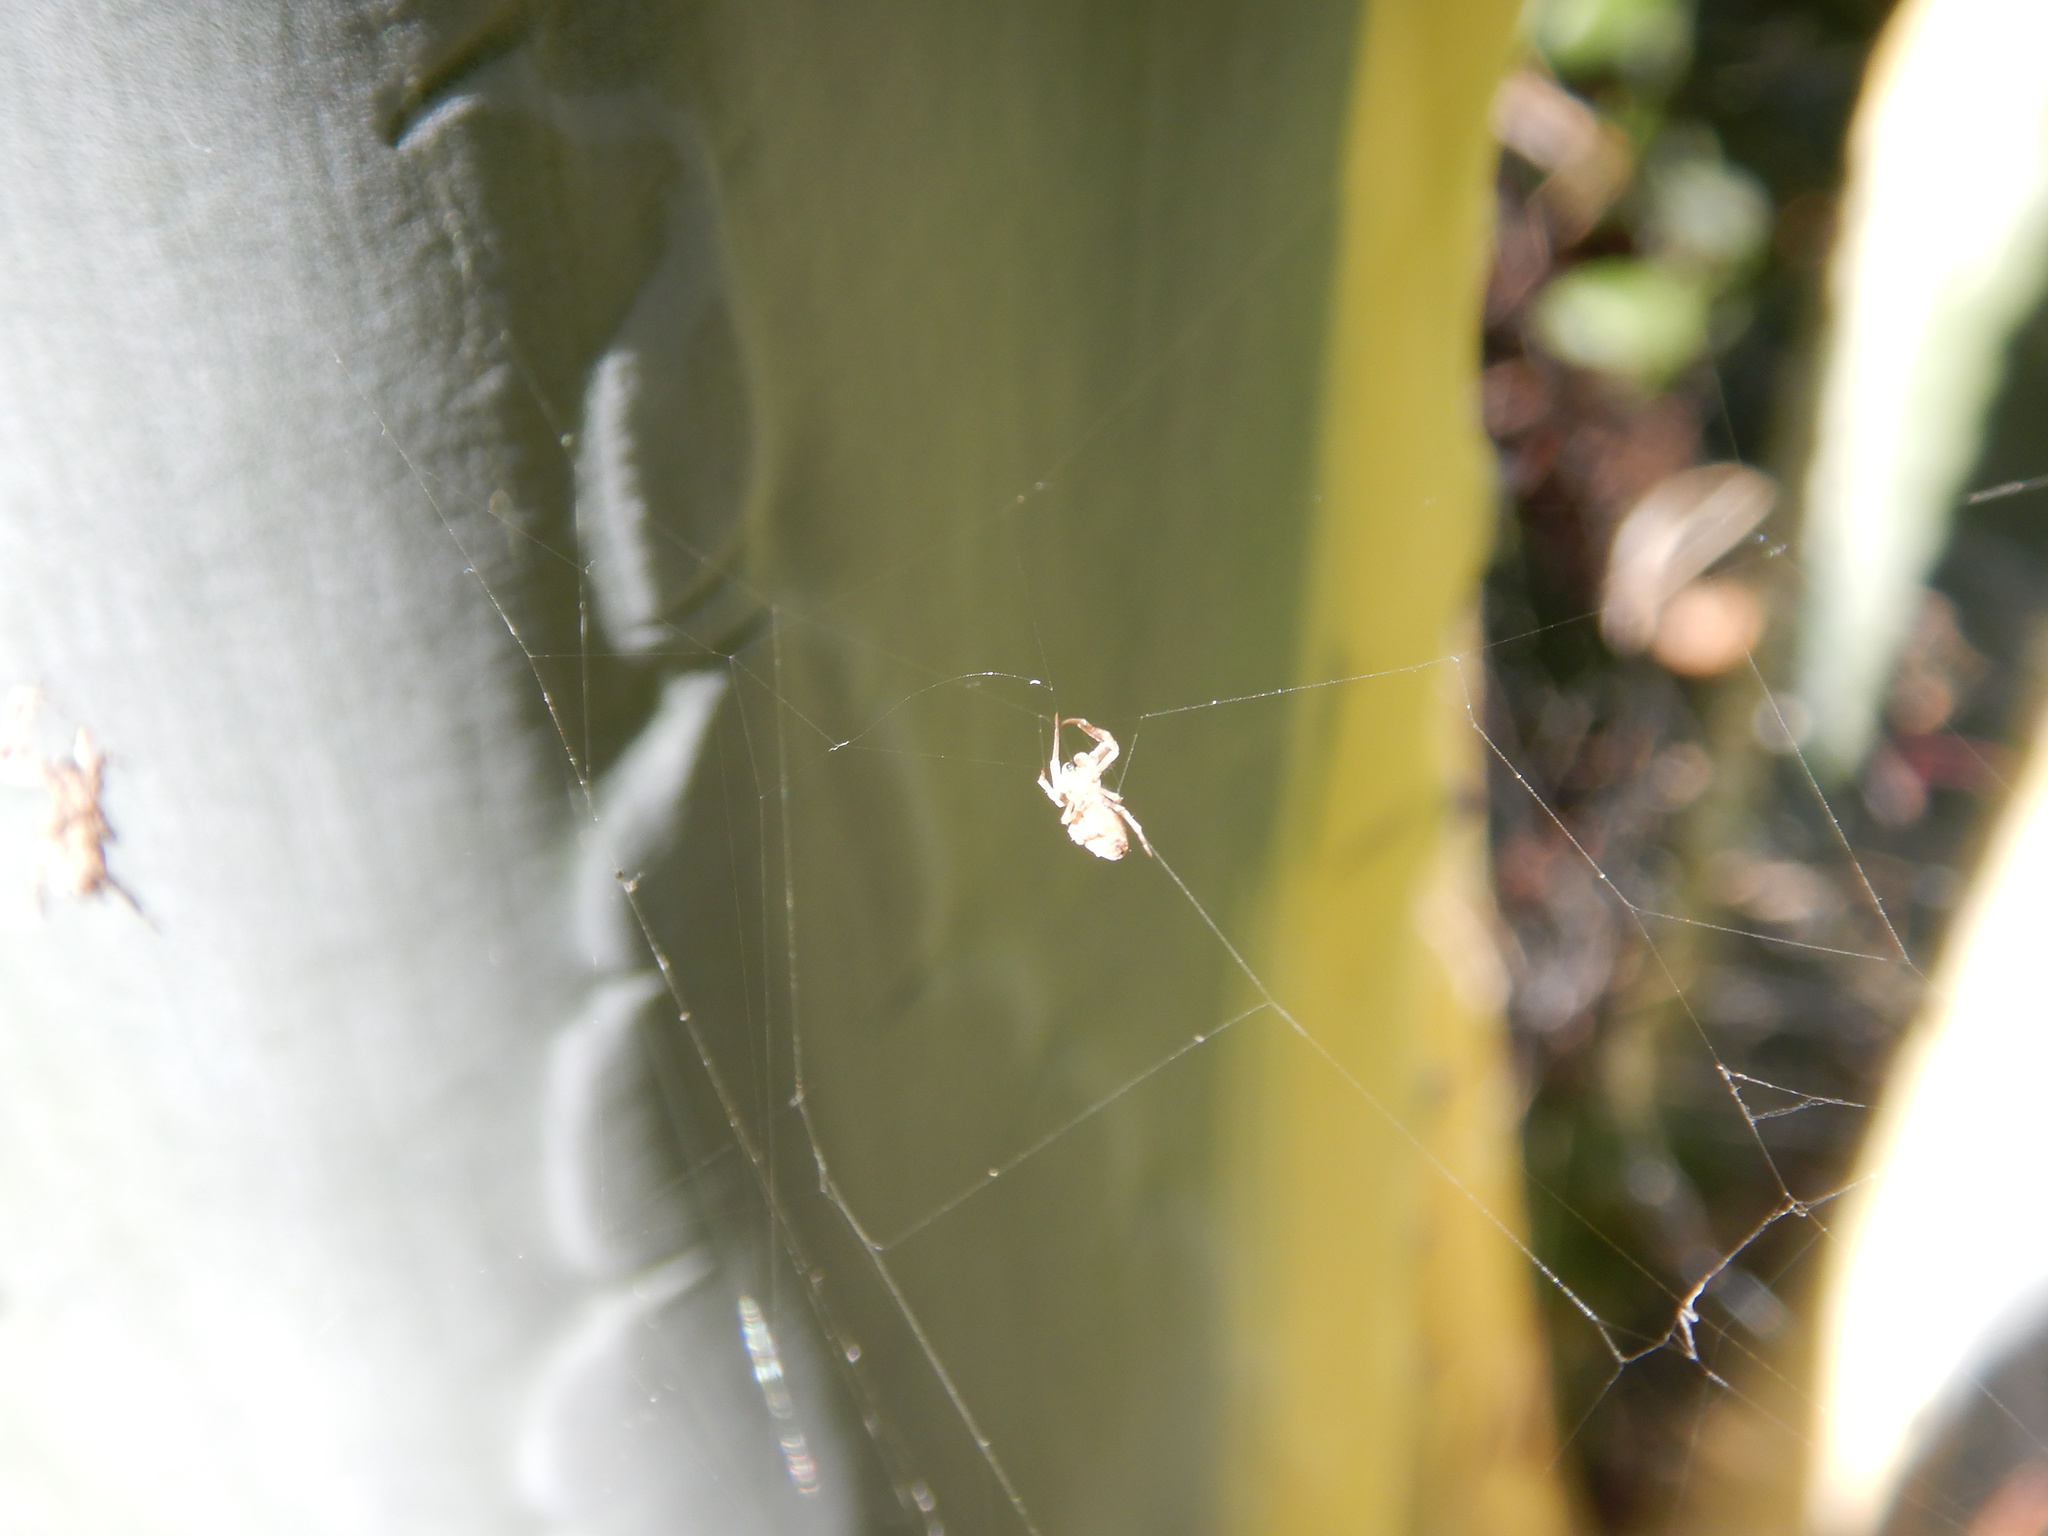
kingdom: Animalia
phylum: Arthropoda
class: Arachnida
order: Araneae
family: Uloboridae
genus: Philoponella
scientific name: Philoponella congregabilis
